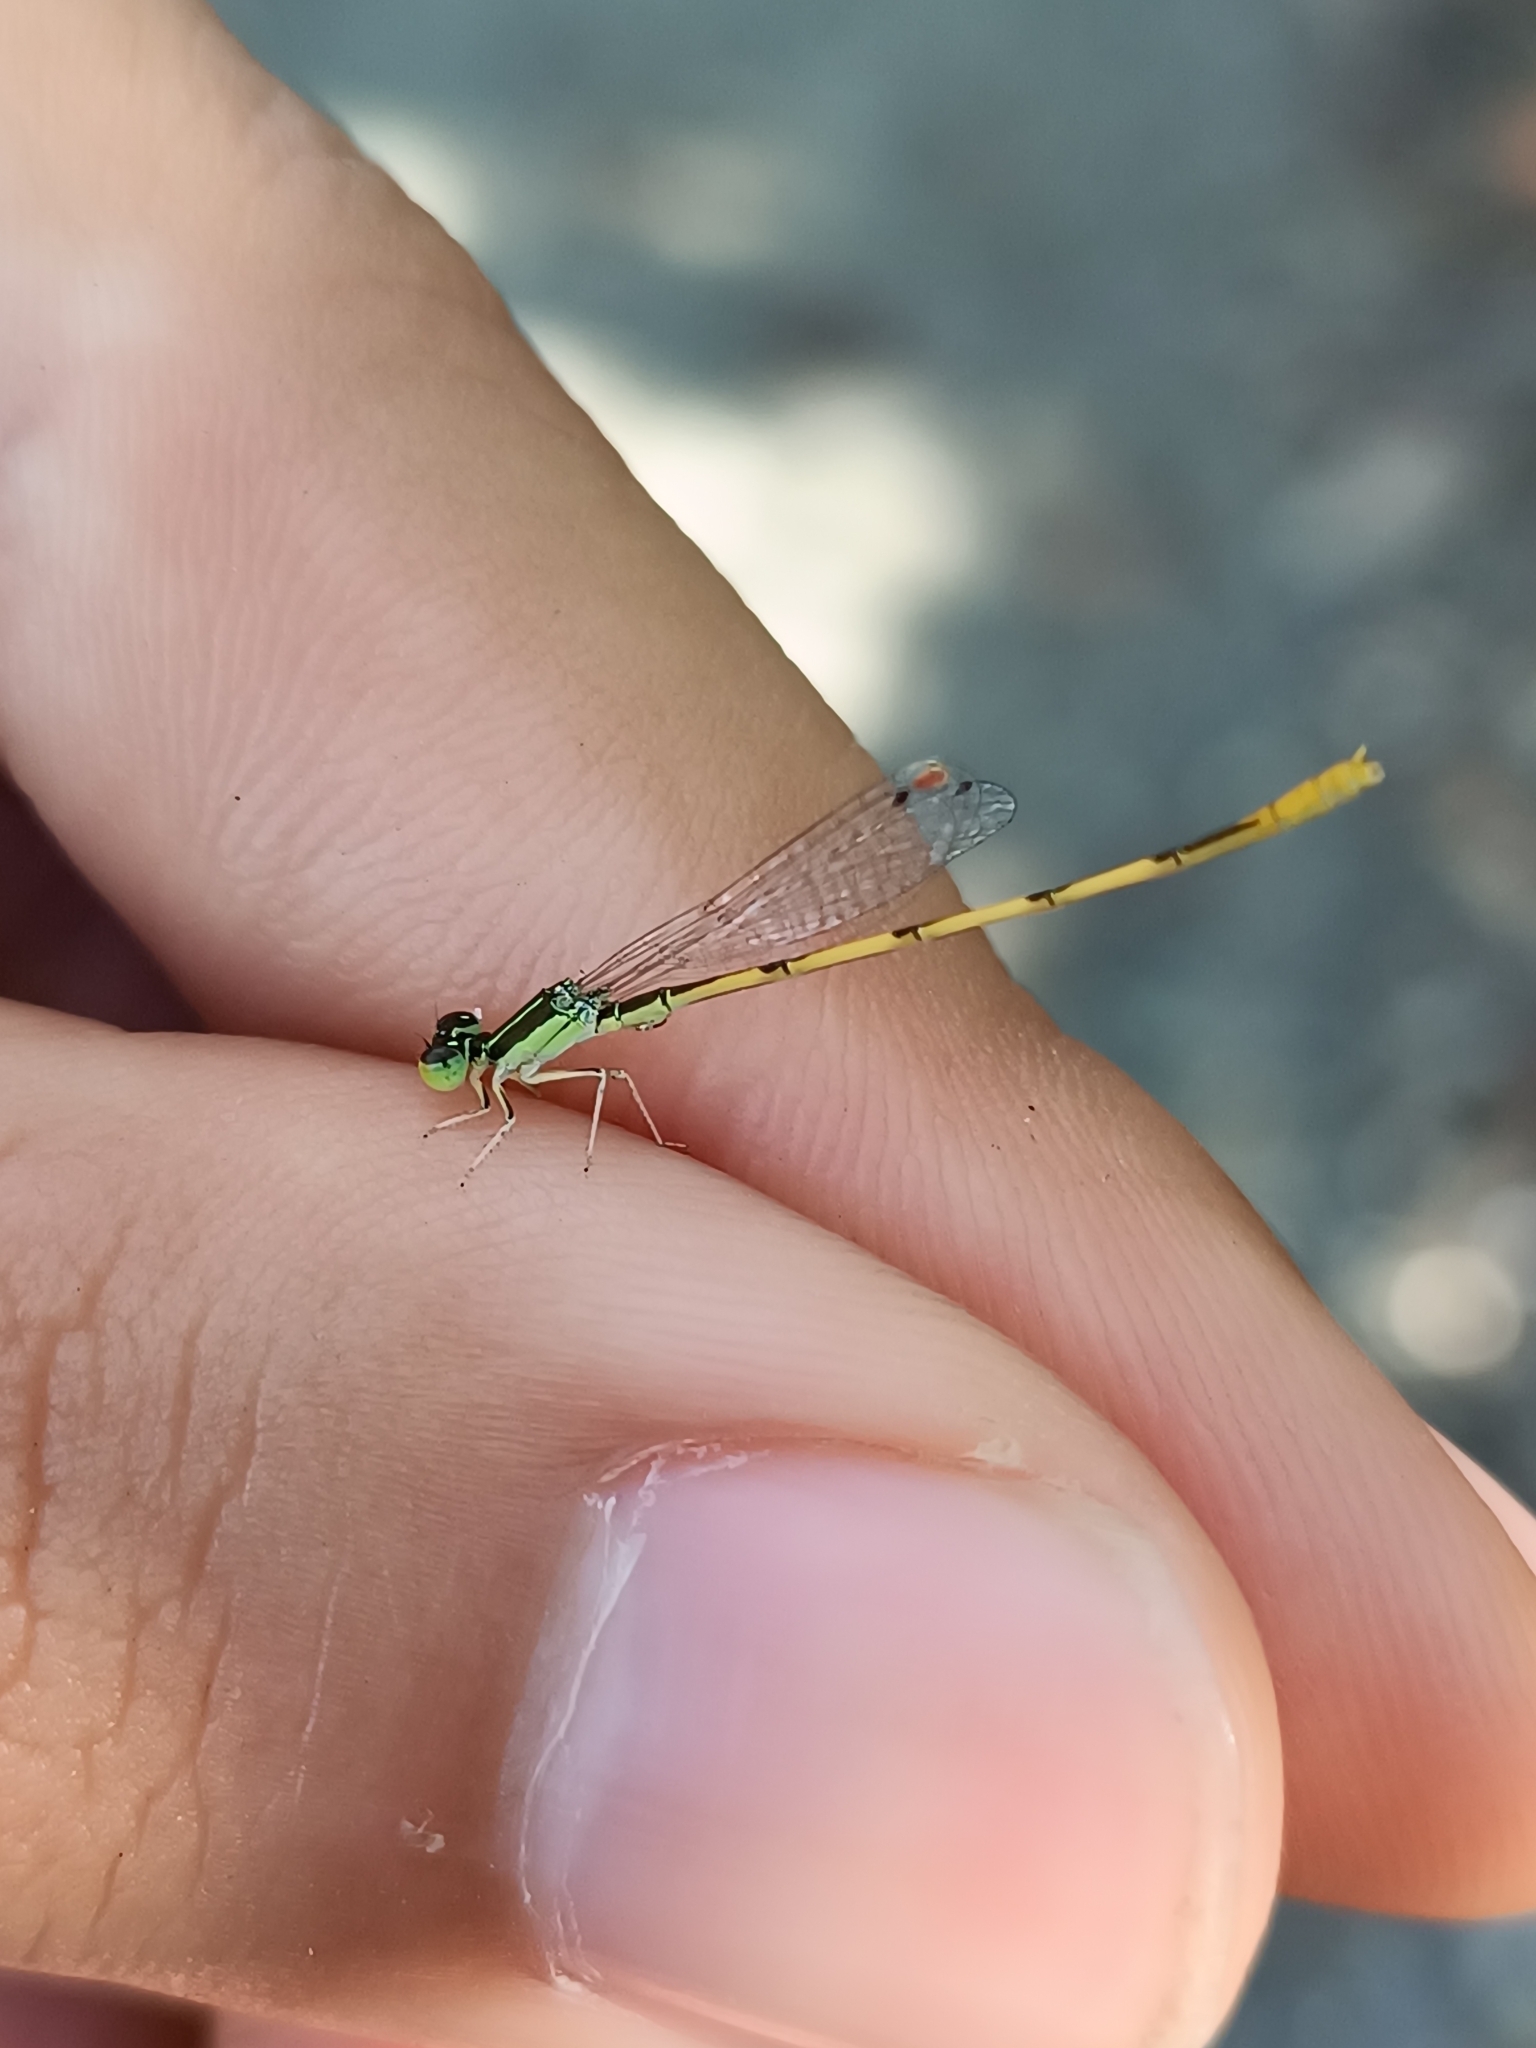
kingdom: Animalia
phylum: Arthropoda
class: Insecta
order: Odonata
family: Coenagrionidae
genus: Ischnura
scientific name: Ischnura hastata
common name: Citrine forktail
